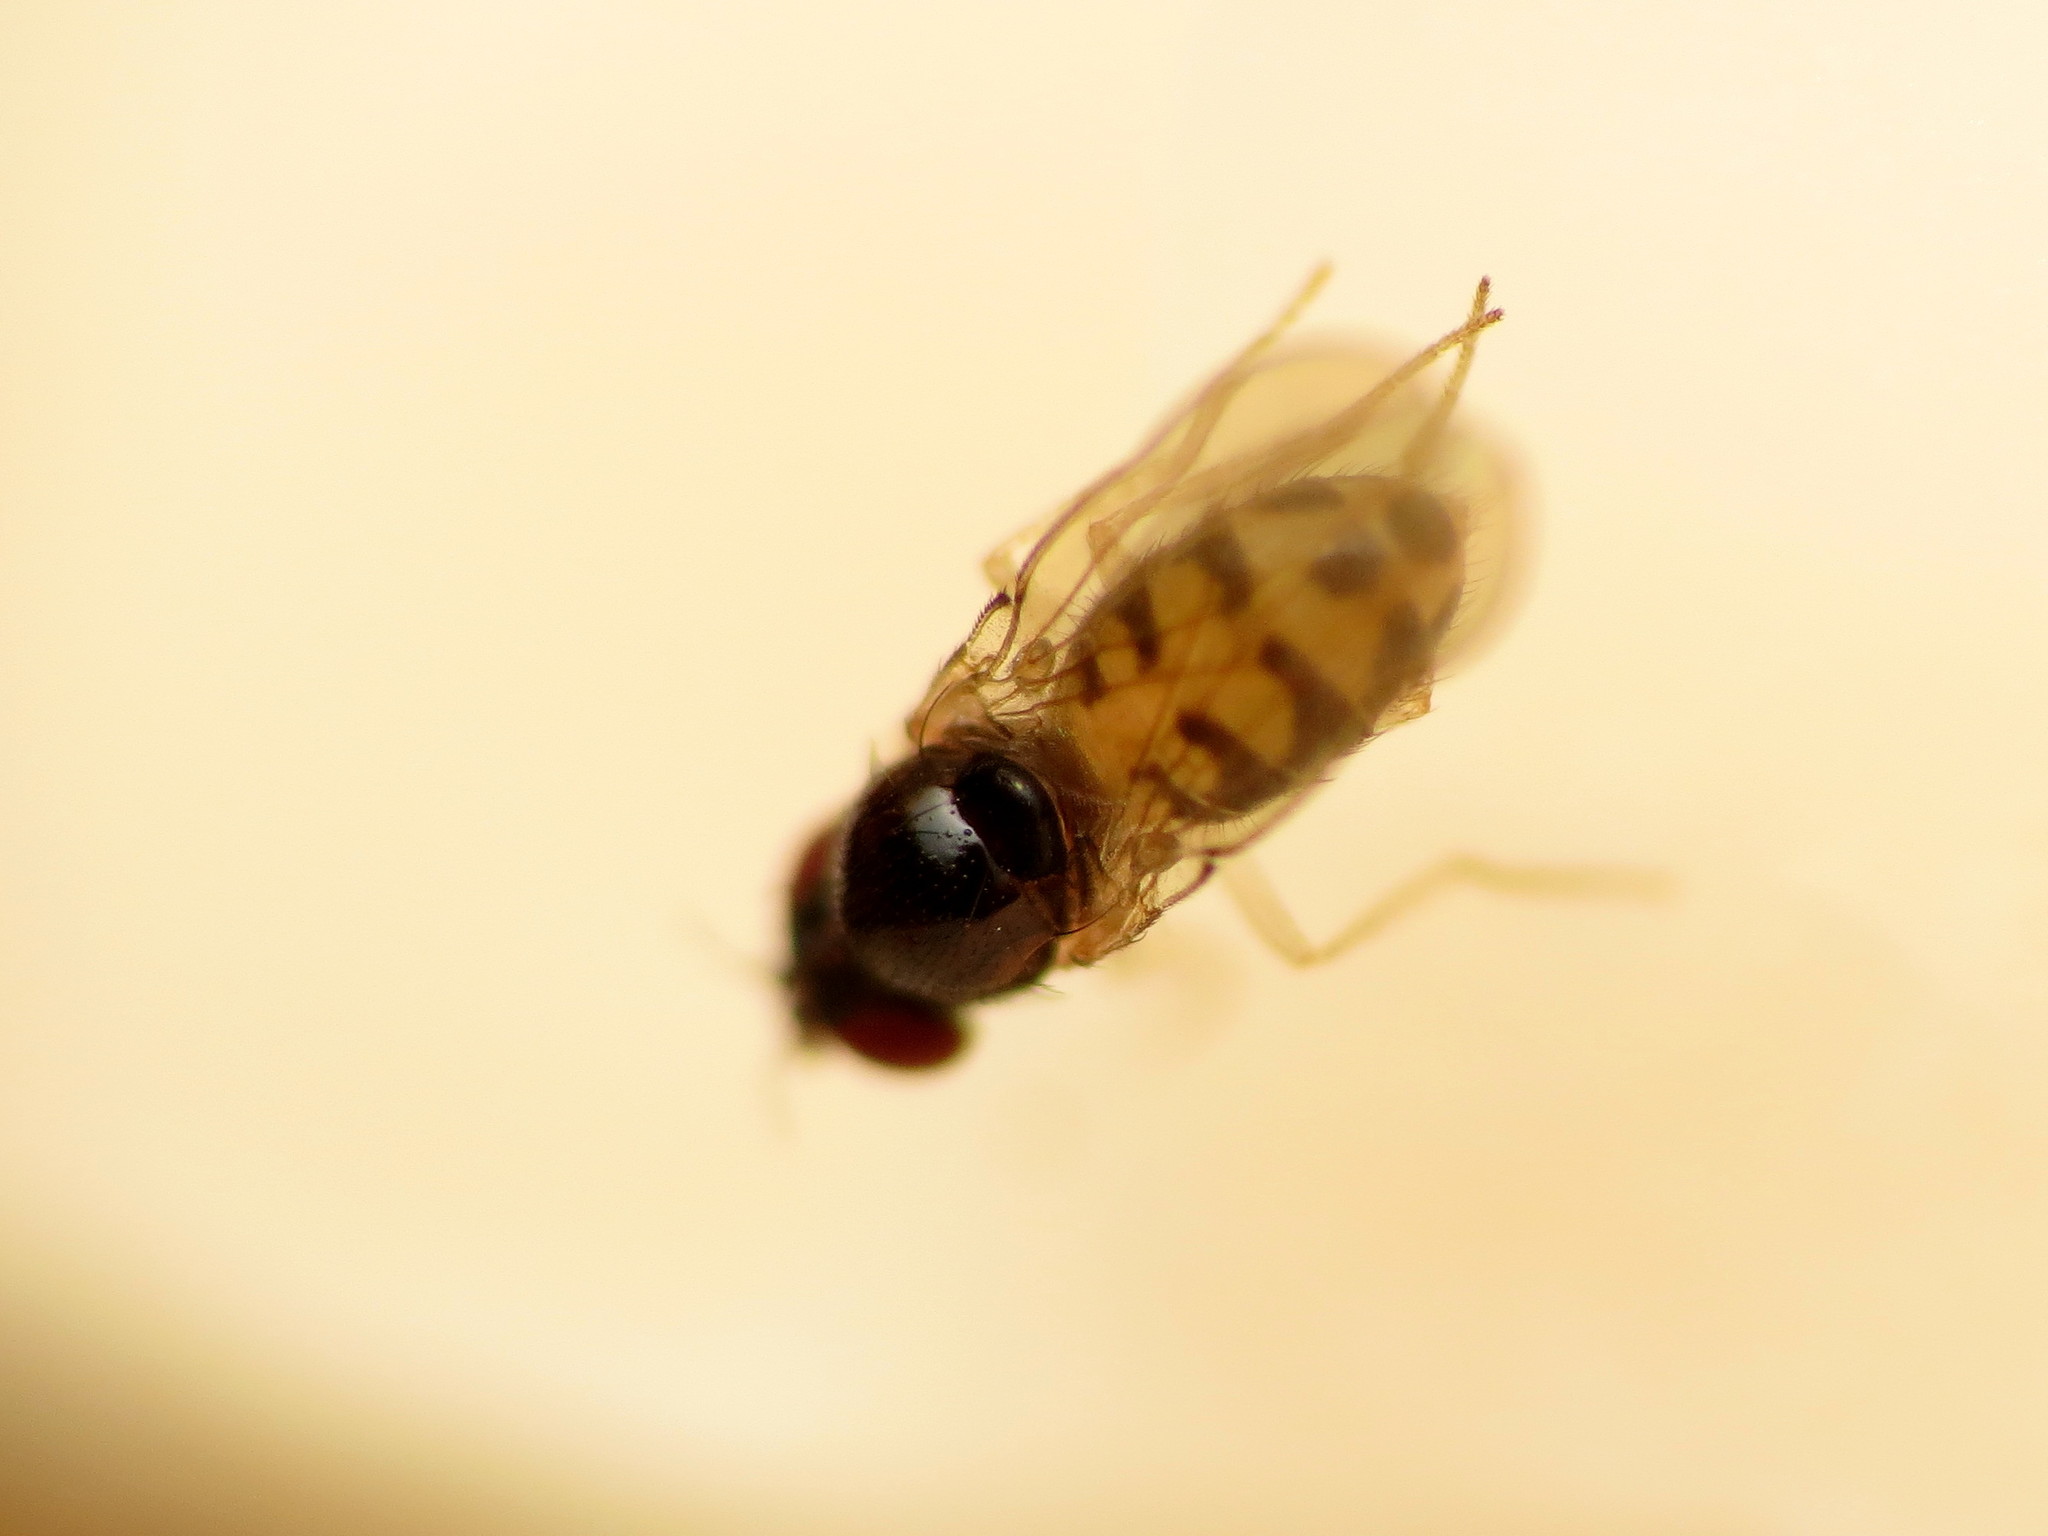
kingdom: Animalia
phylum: Arthropoda
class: Insecta
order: Diptera
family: Drosophilidae
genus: Mycodrosophila
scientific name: Mycodrosophila dimidiata
